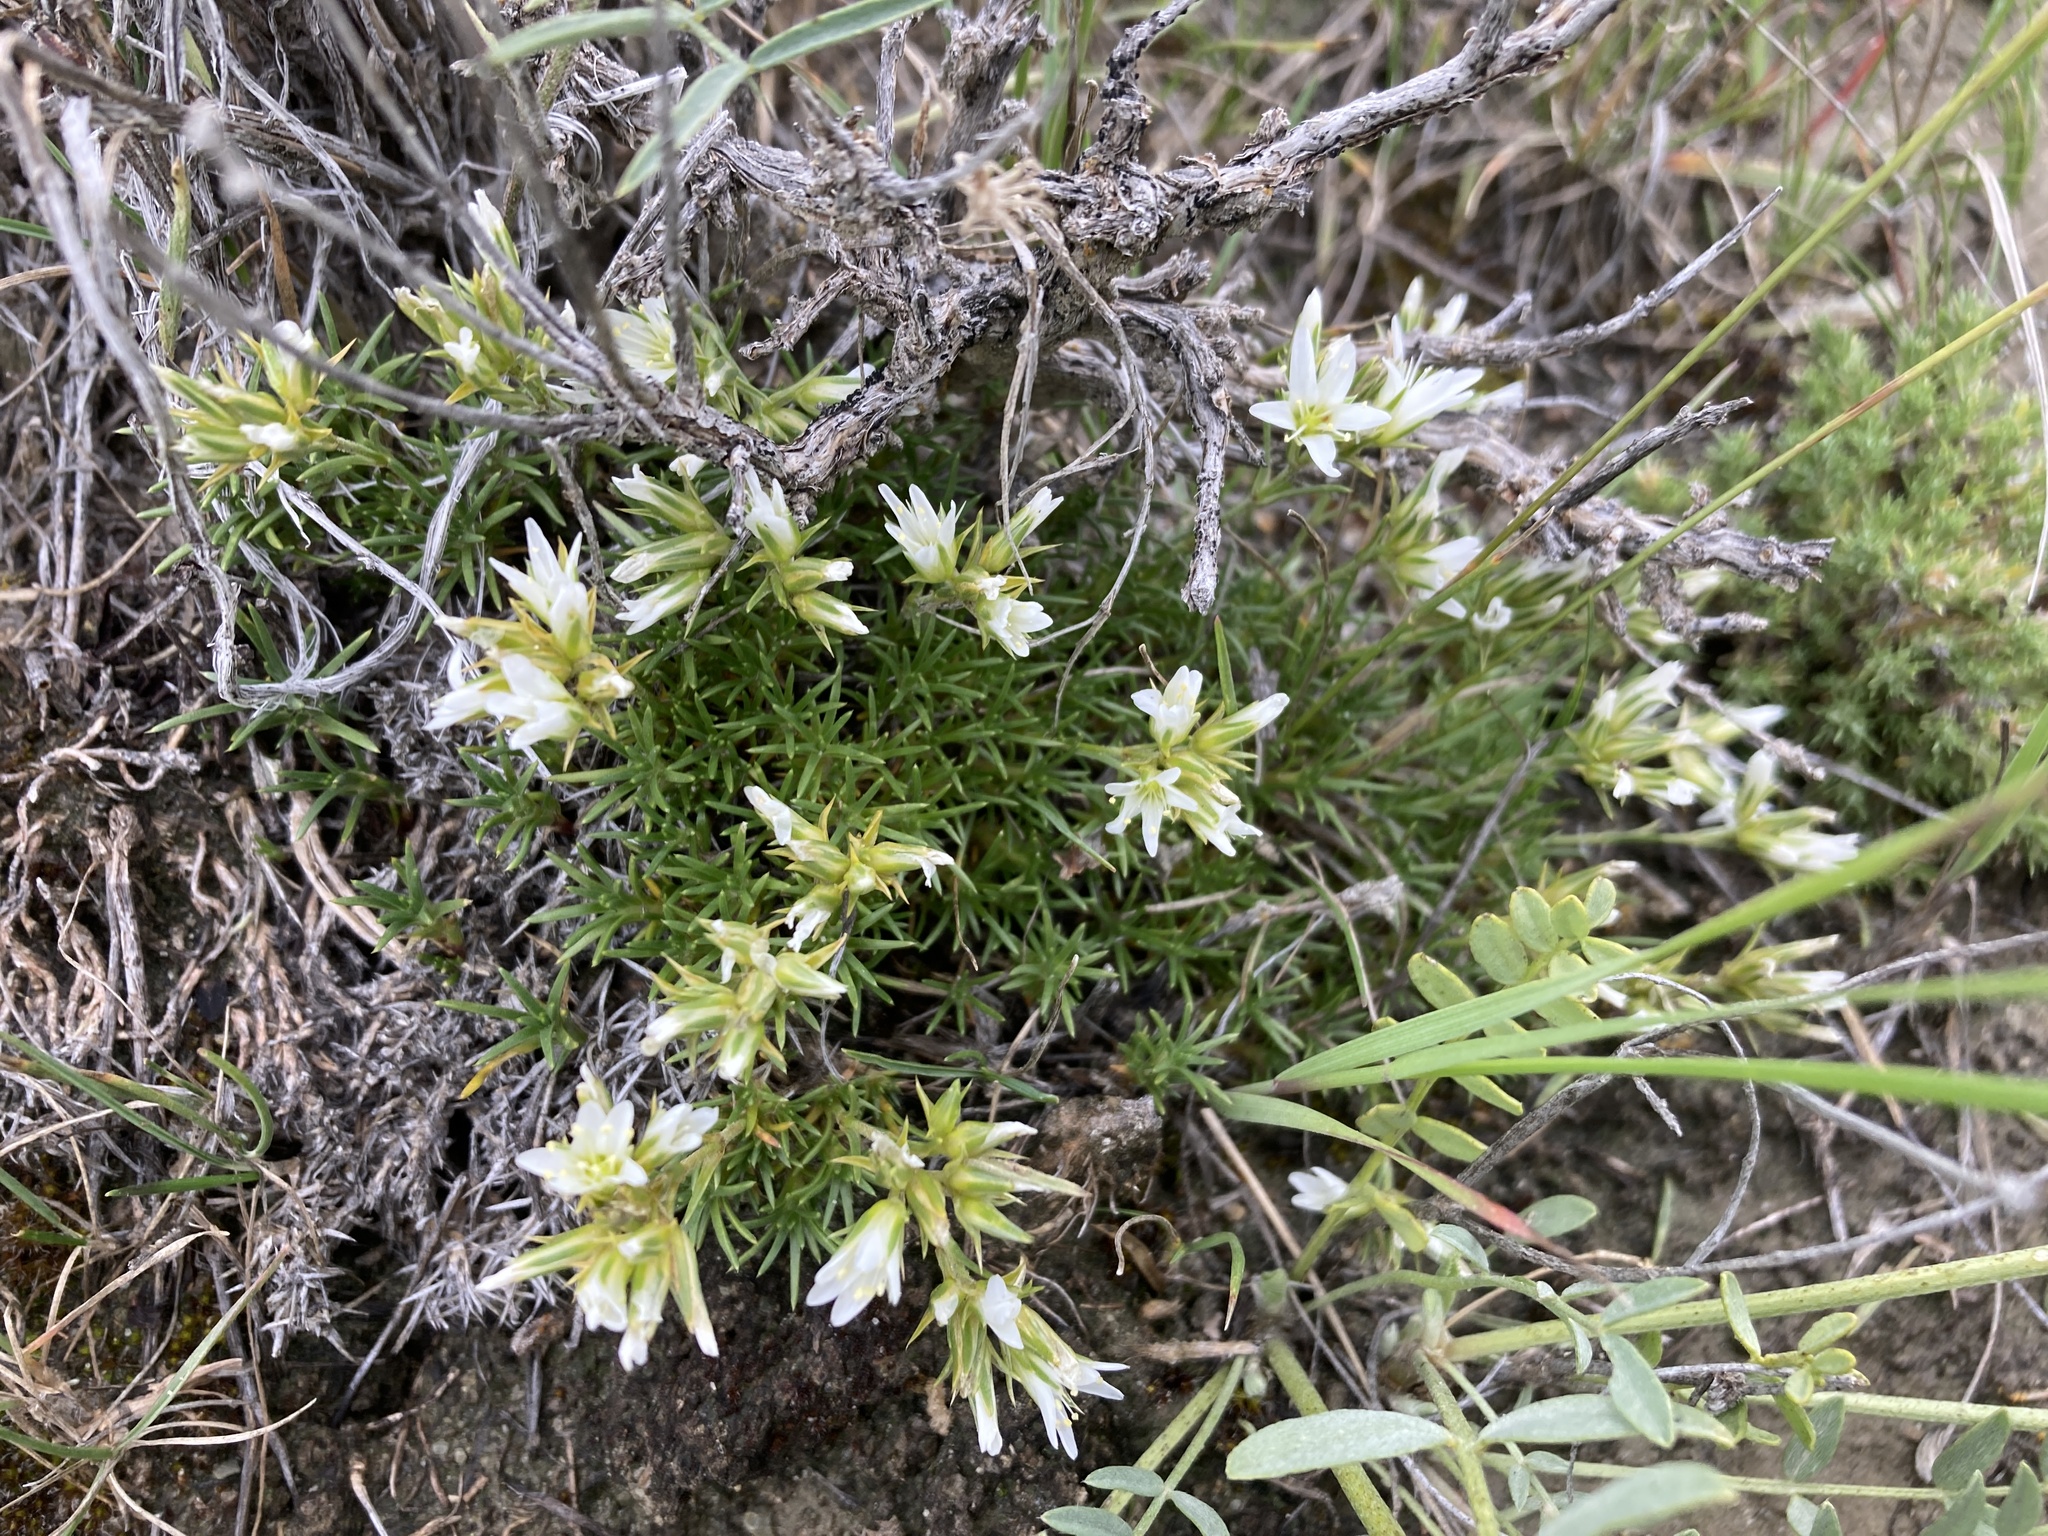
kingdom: Plantae
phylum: Tracheophyta
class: Magnoliopsida
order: Caryophyllales
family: Caryophyllaceae
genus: Eremogone
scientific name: Eremogone hookeri
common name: Hooker's sandwort
